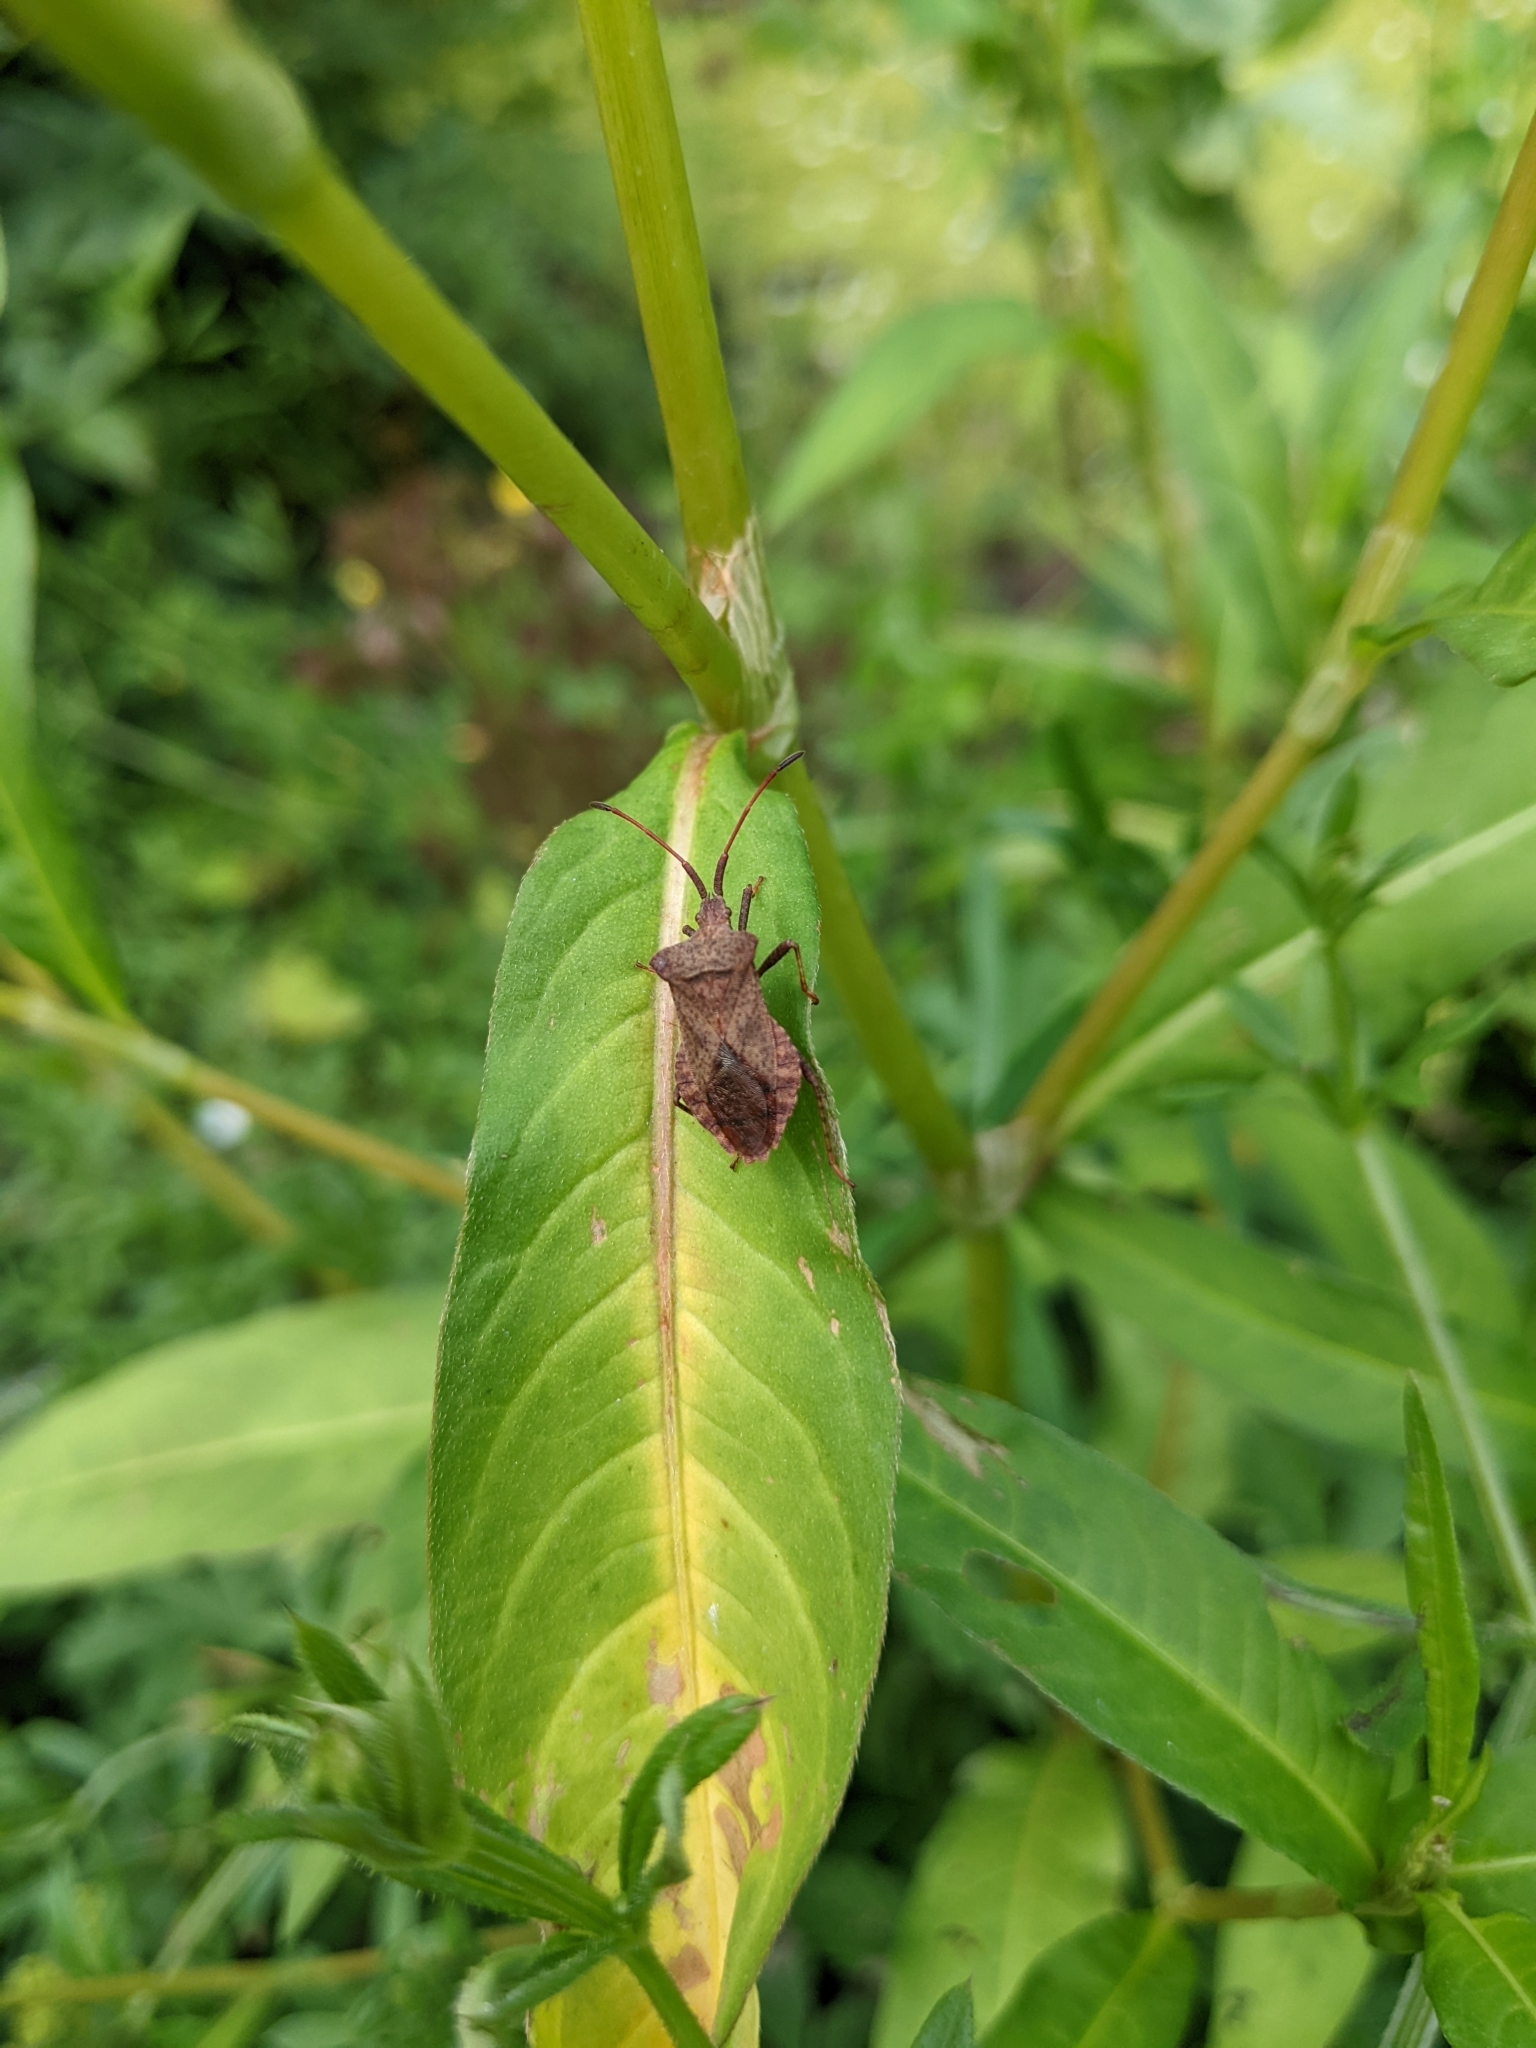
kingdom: Animalia
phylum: Arthropoda
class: Insecta
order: Hemiptera
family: Coreidae
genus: Coreus
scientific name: Coreus marginatus
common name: Dock bug
